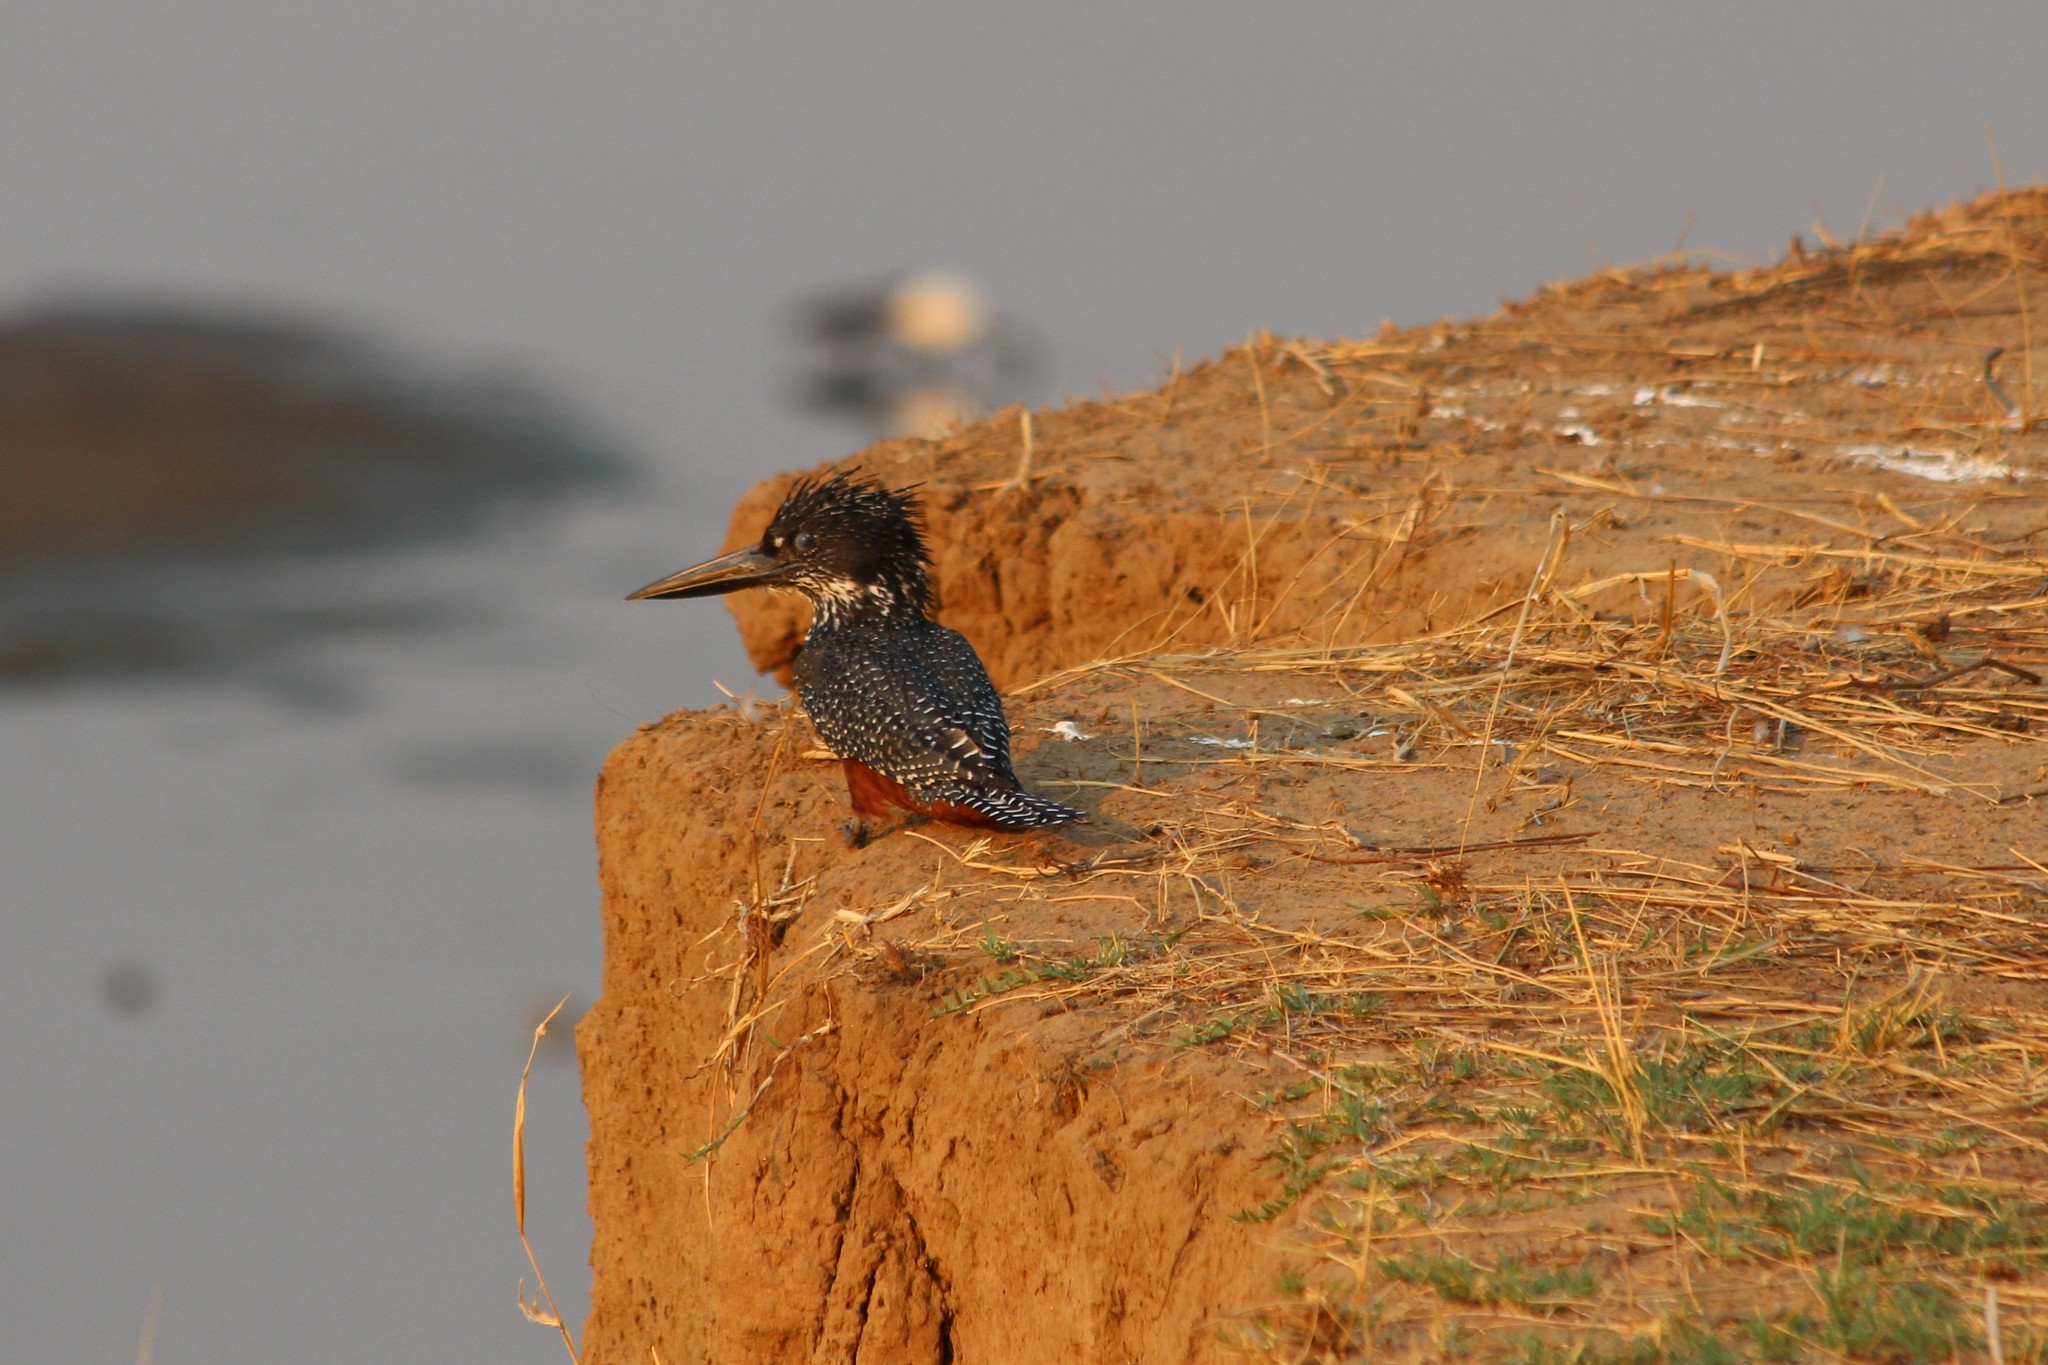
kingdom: Animalia
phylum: Chordata
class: Aves
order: Coraciiformes
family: Alcedinidae
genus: Megaceryle
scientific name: Megaceryle maxima
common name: Giant kingfisher
